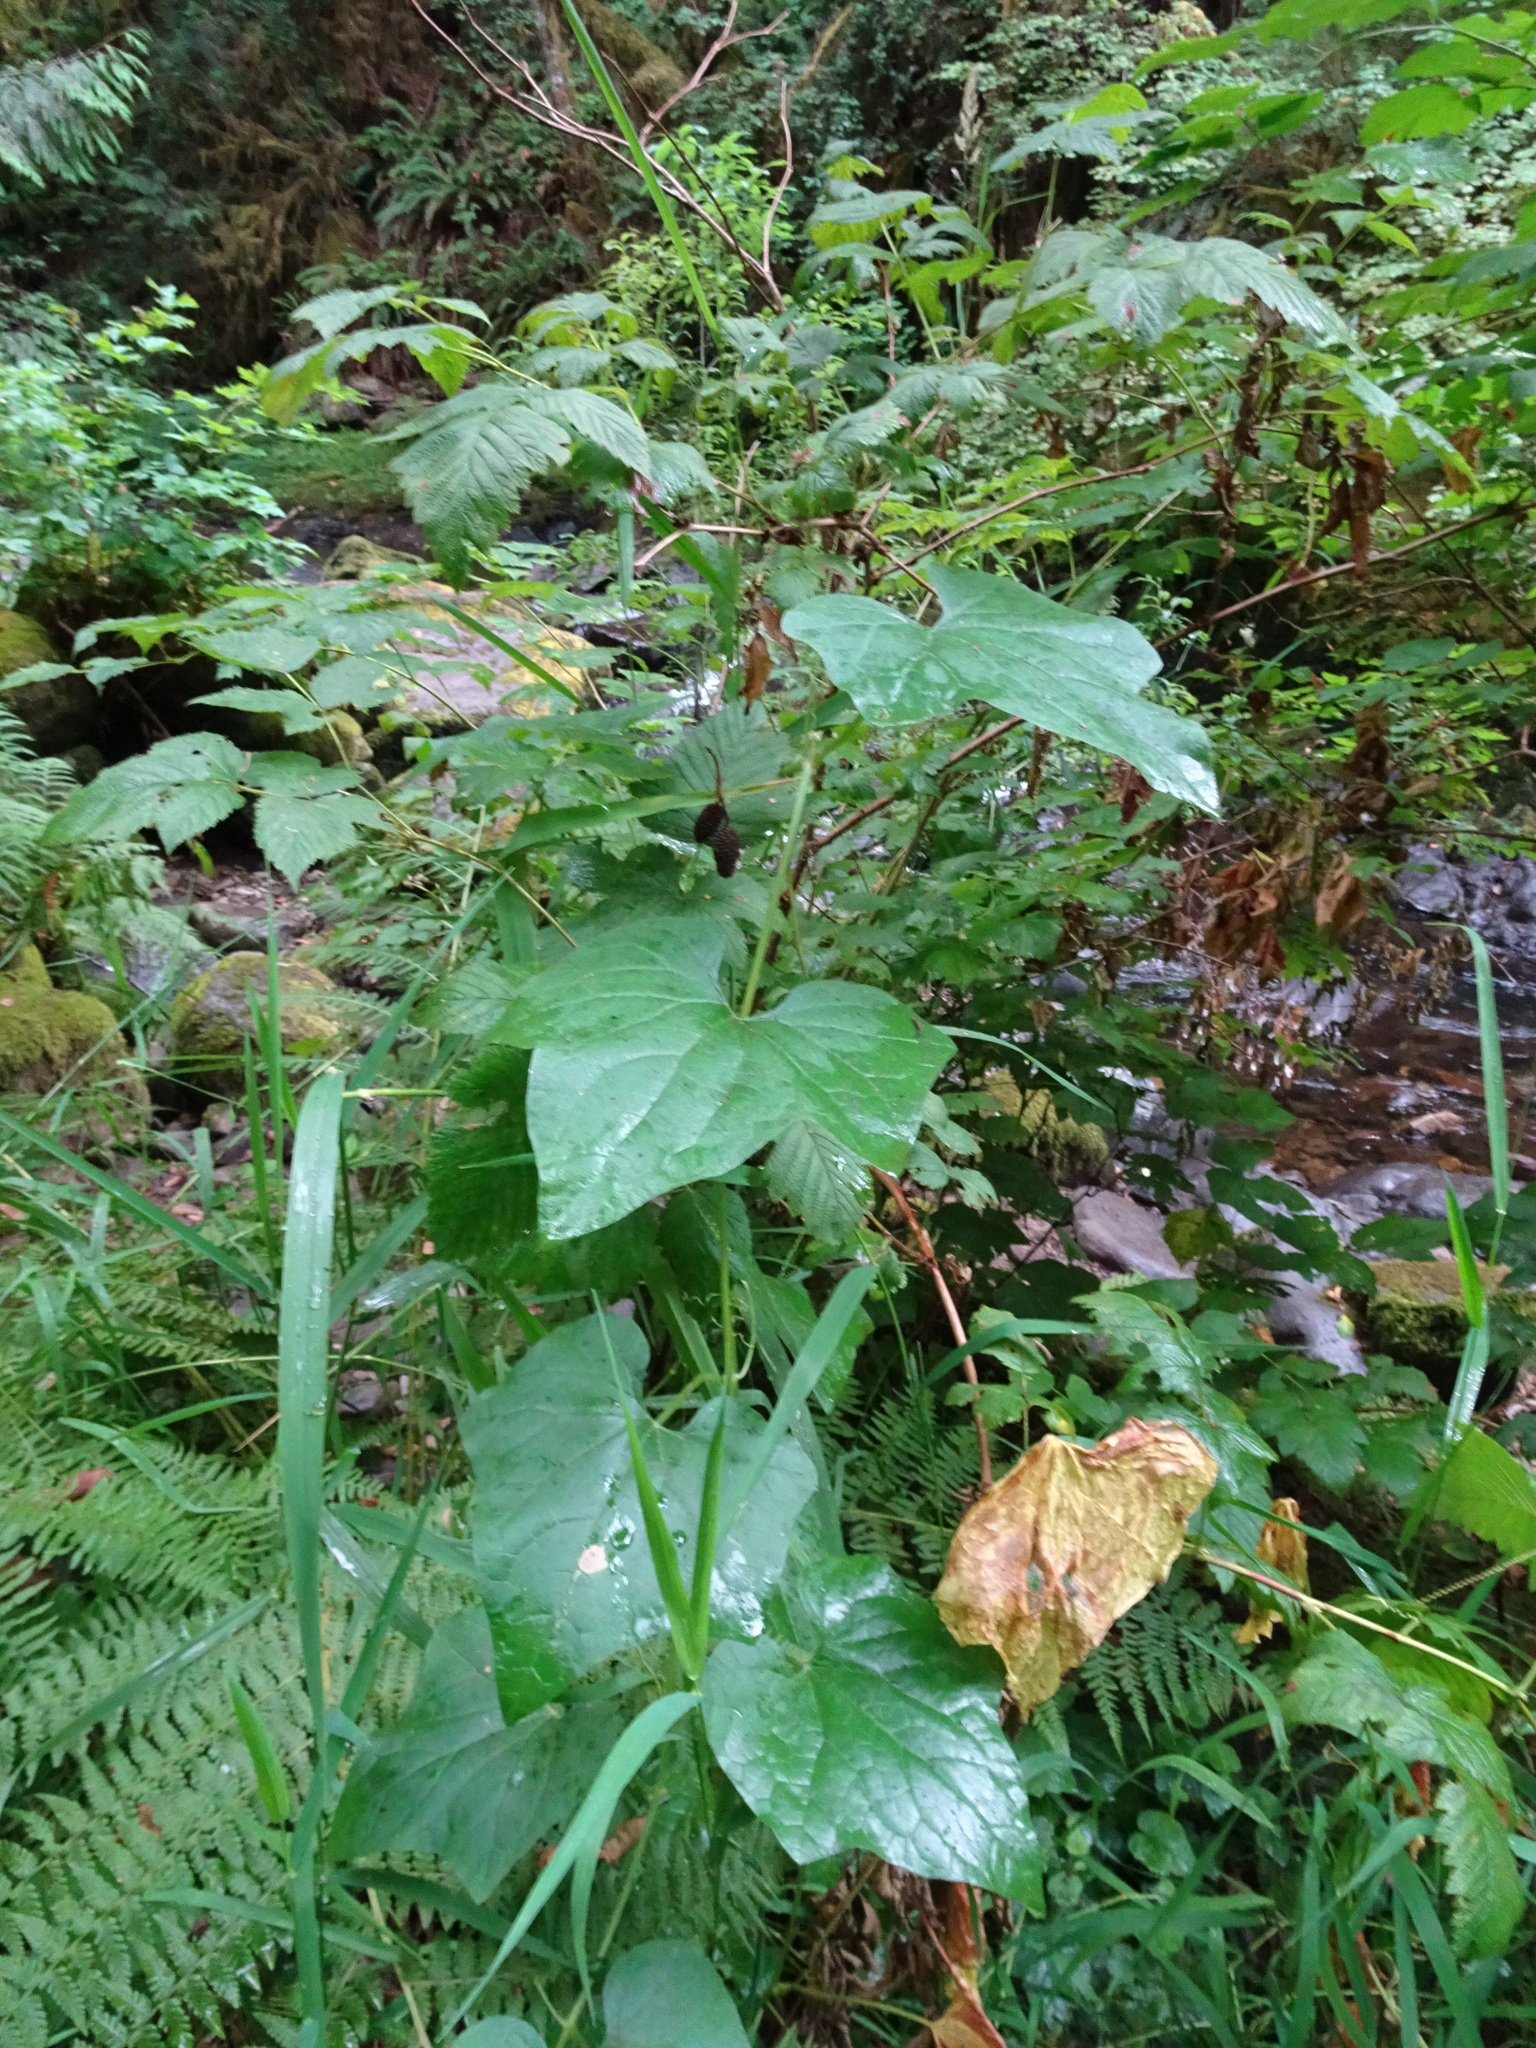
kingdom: Plantae
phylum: Tracheophyta
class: Magnoliopsida
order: Cucurbitales
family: Cucurbitaceae
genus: Marah
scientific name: Marah oregana
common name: Coastal manroot
